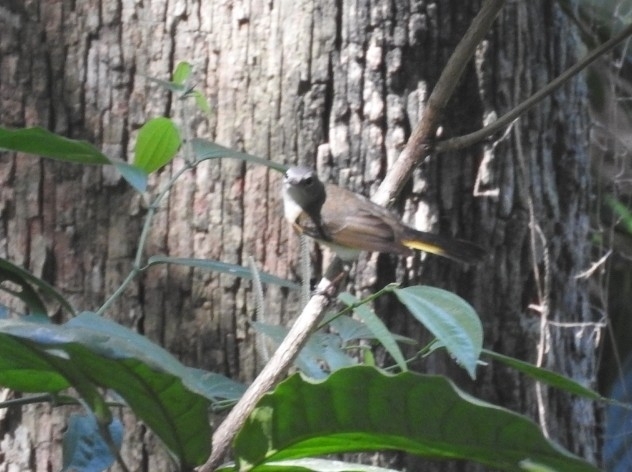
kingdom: Animalia
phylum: Chordata
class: Aves
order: Passeriformes
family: Parulidae
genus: Setophaga
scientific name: Setophaga ruticilla
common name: American redstart
